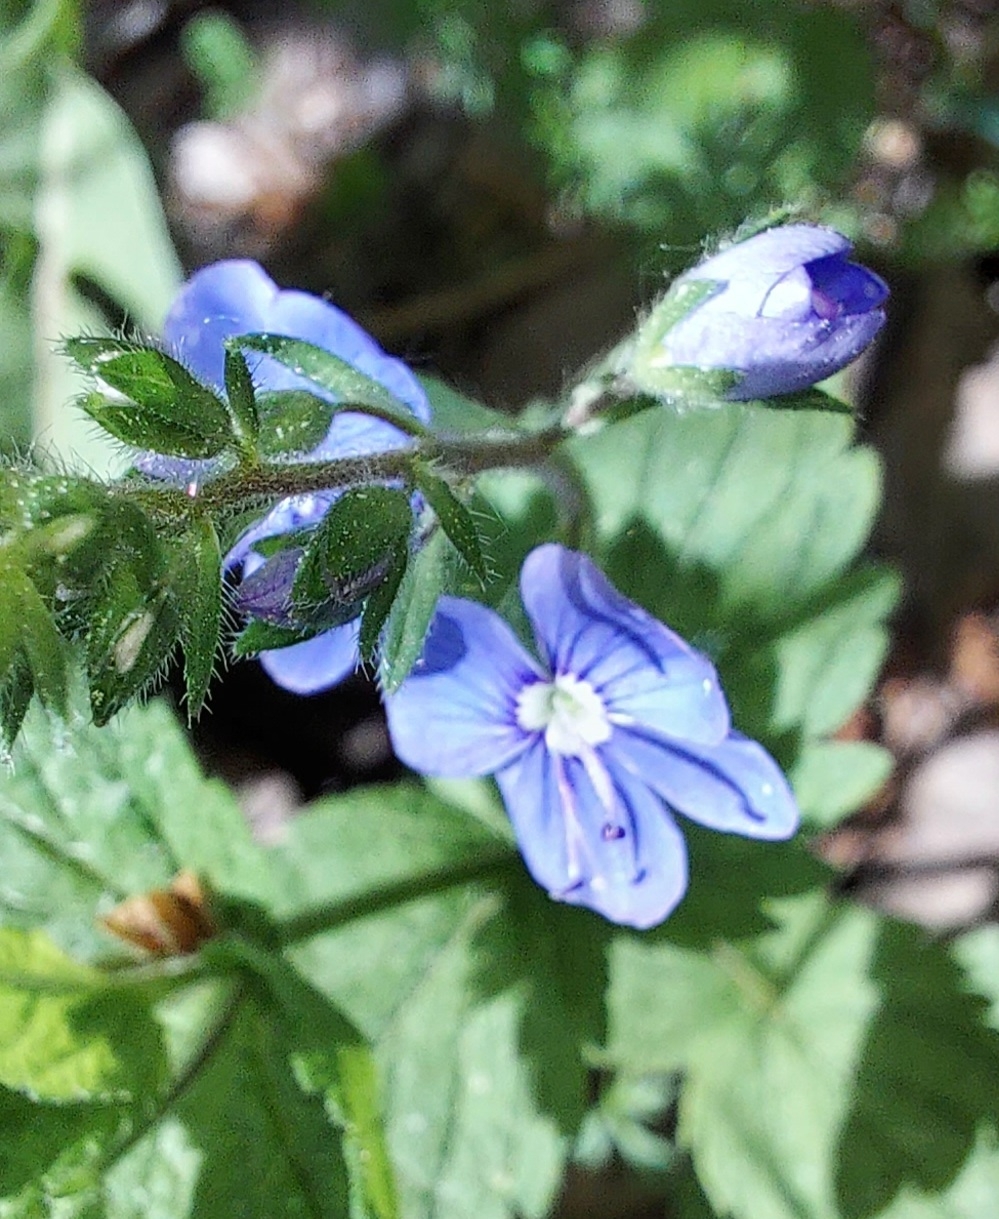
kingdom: Plantae
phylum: Tracheophyta
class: Magnoliopsida
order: Lamiales
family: Plantaginaceae
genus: Veronica
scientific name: Veronica chamaedrys
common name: Germander speedwell
